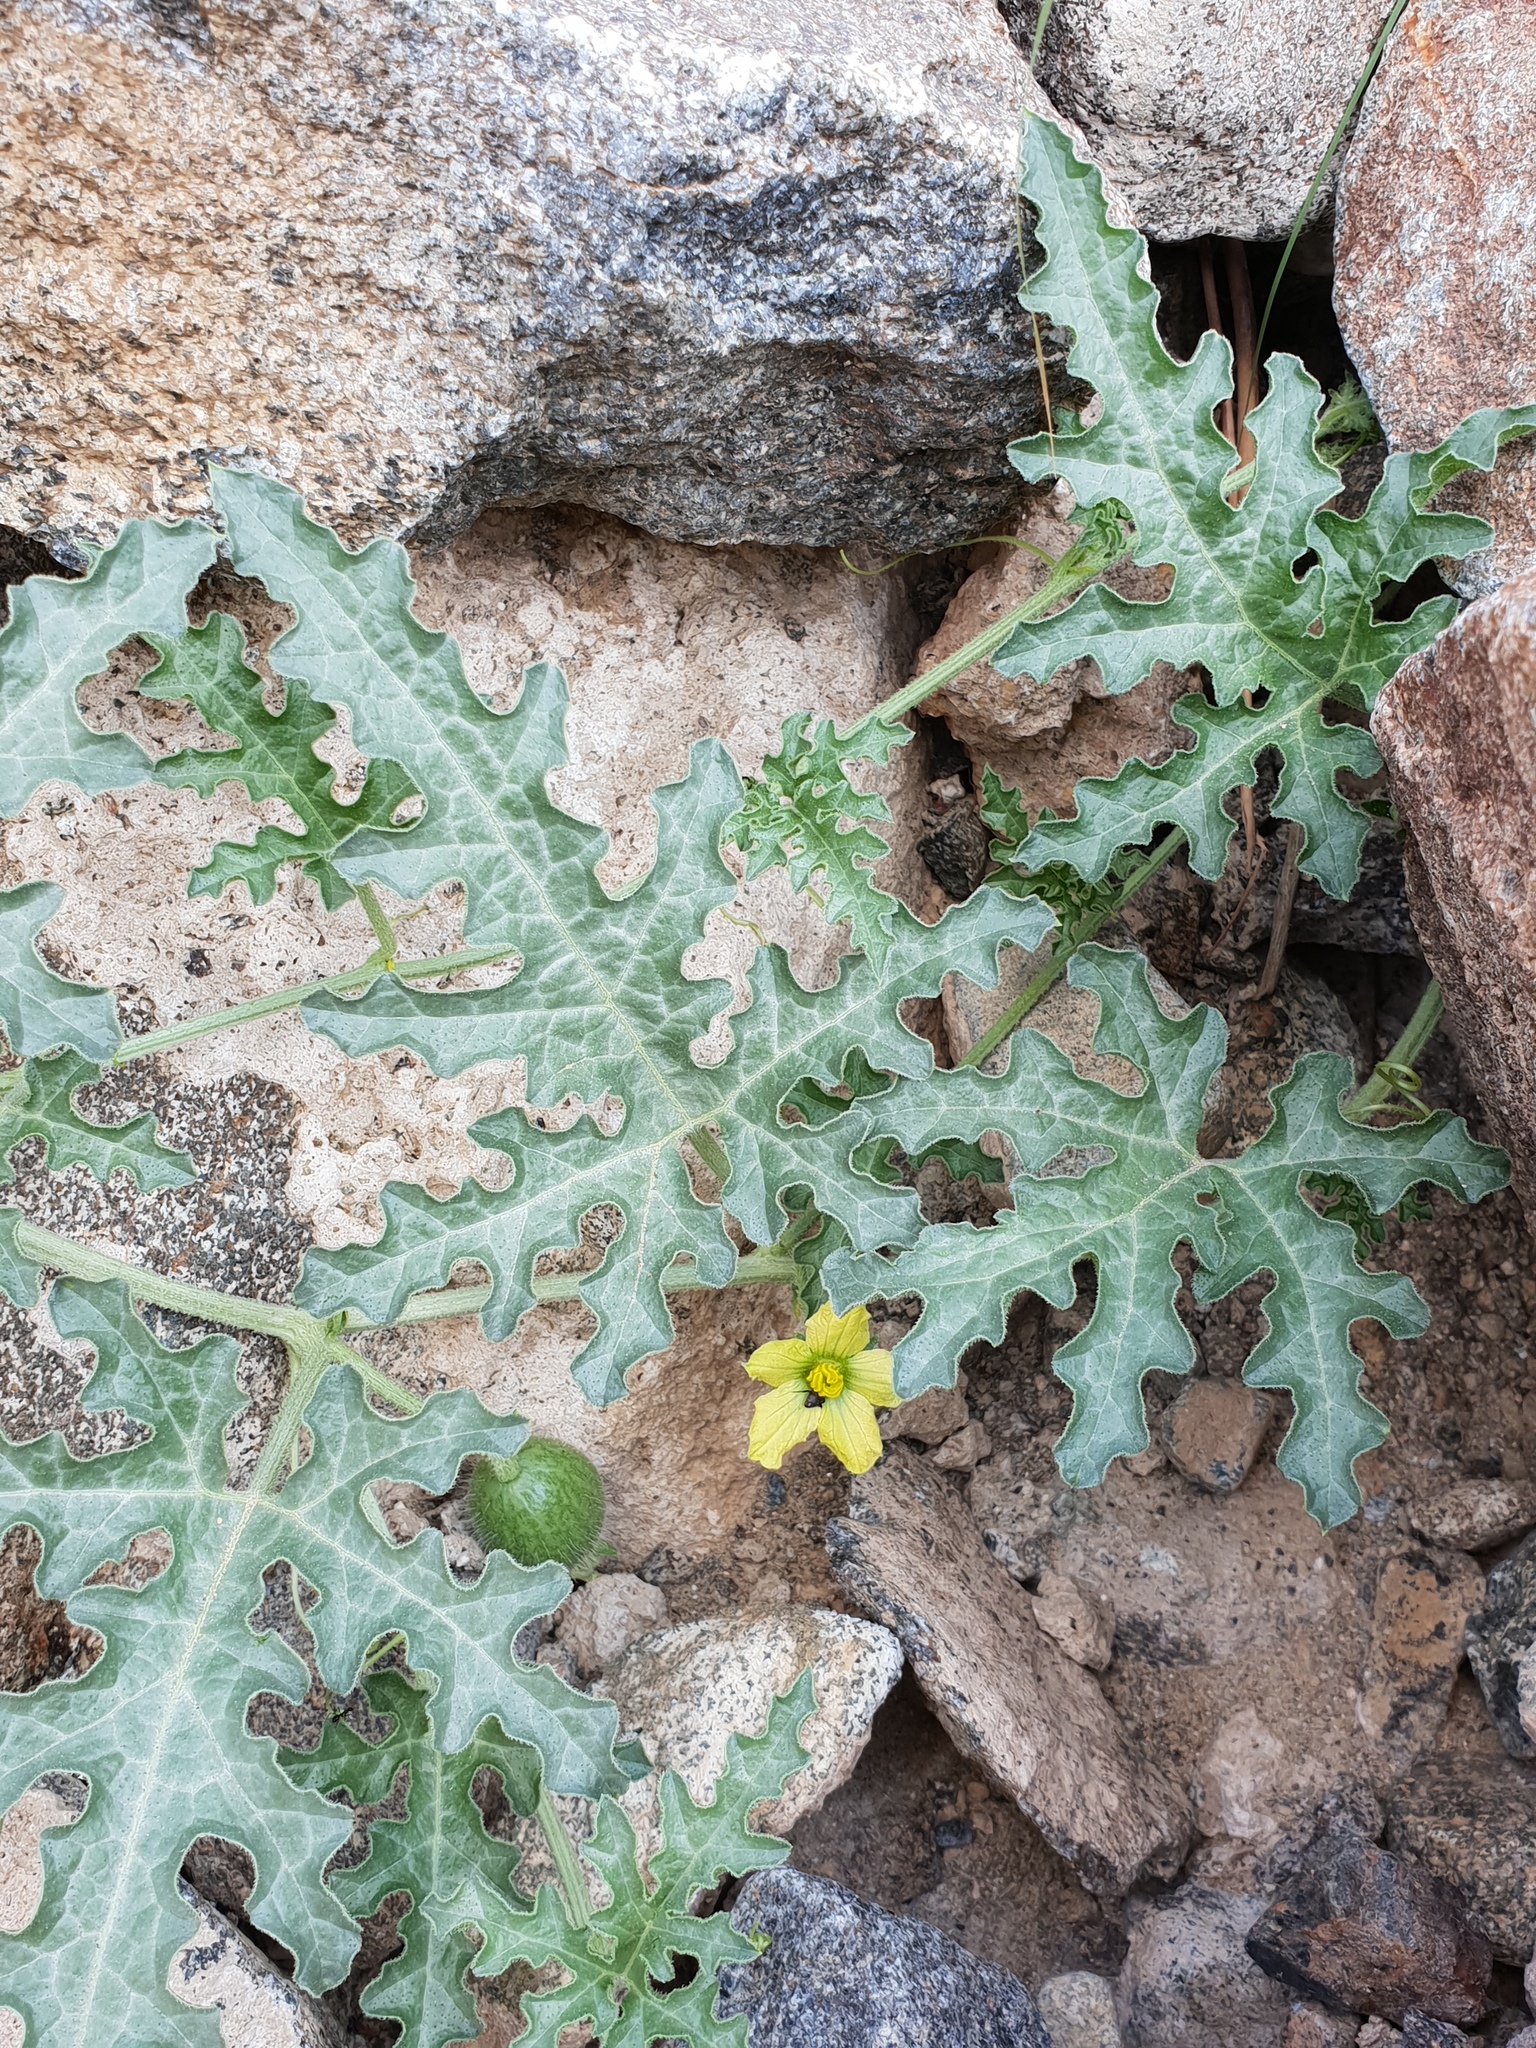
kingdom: Plantae
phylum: Tracheophyta
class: Magnoliopsida
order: Cucurbitales
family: Cucurbitaceae
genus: Citrullus
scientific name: Citrullus colocynthis
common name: Colocynth
